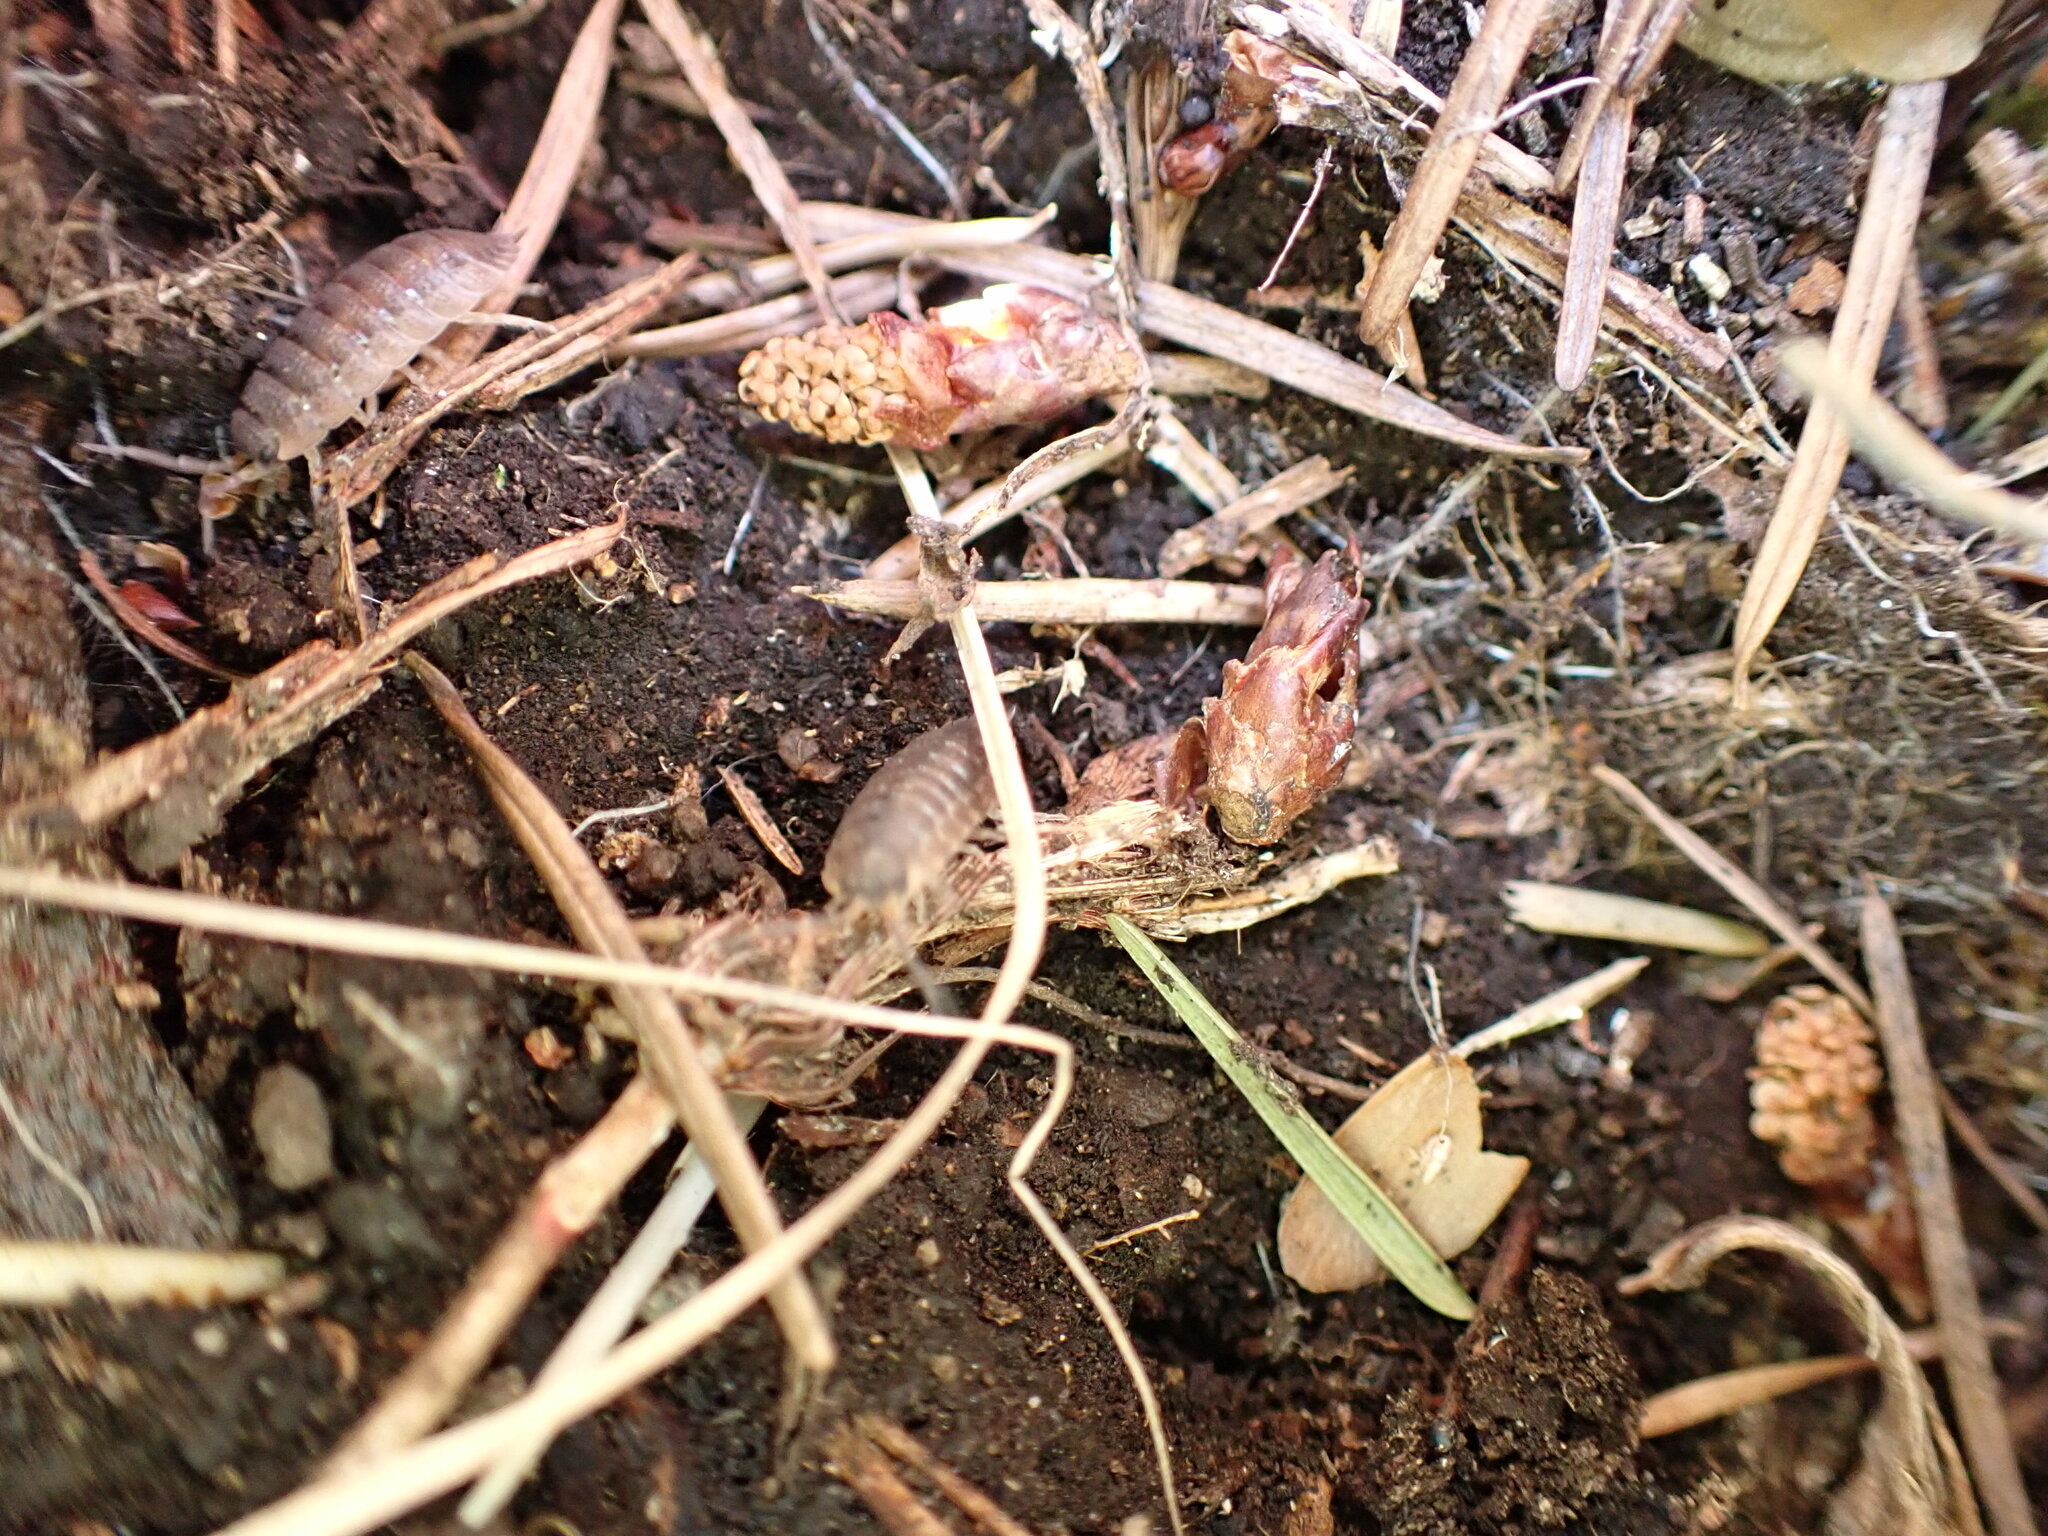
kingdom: Animalia
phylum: Arthropoda
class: Malacostraca
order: Isopoda
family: Porcellionidae
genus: Porcellio
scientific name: Porcellio scaber
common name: Common rough woodlouse
